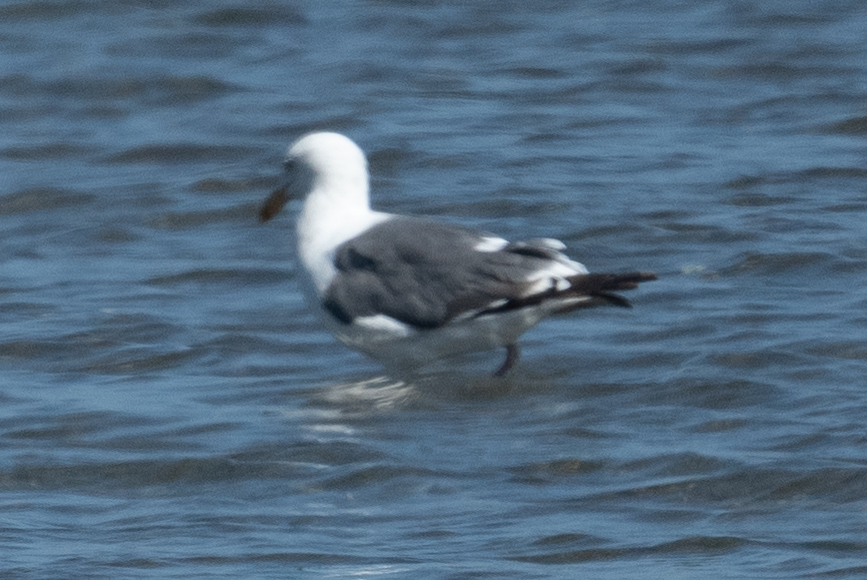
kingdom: Animalia
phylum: Chordata
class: Aves
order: Charadriiformes
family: Laridae
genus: Larus
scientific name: Larus occidentalis
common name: Western gull
